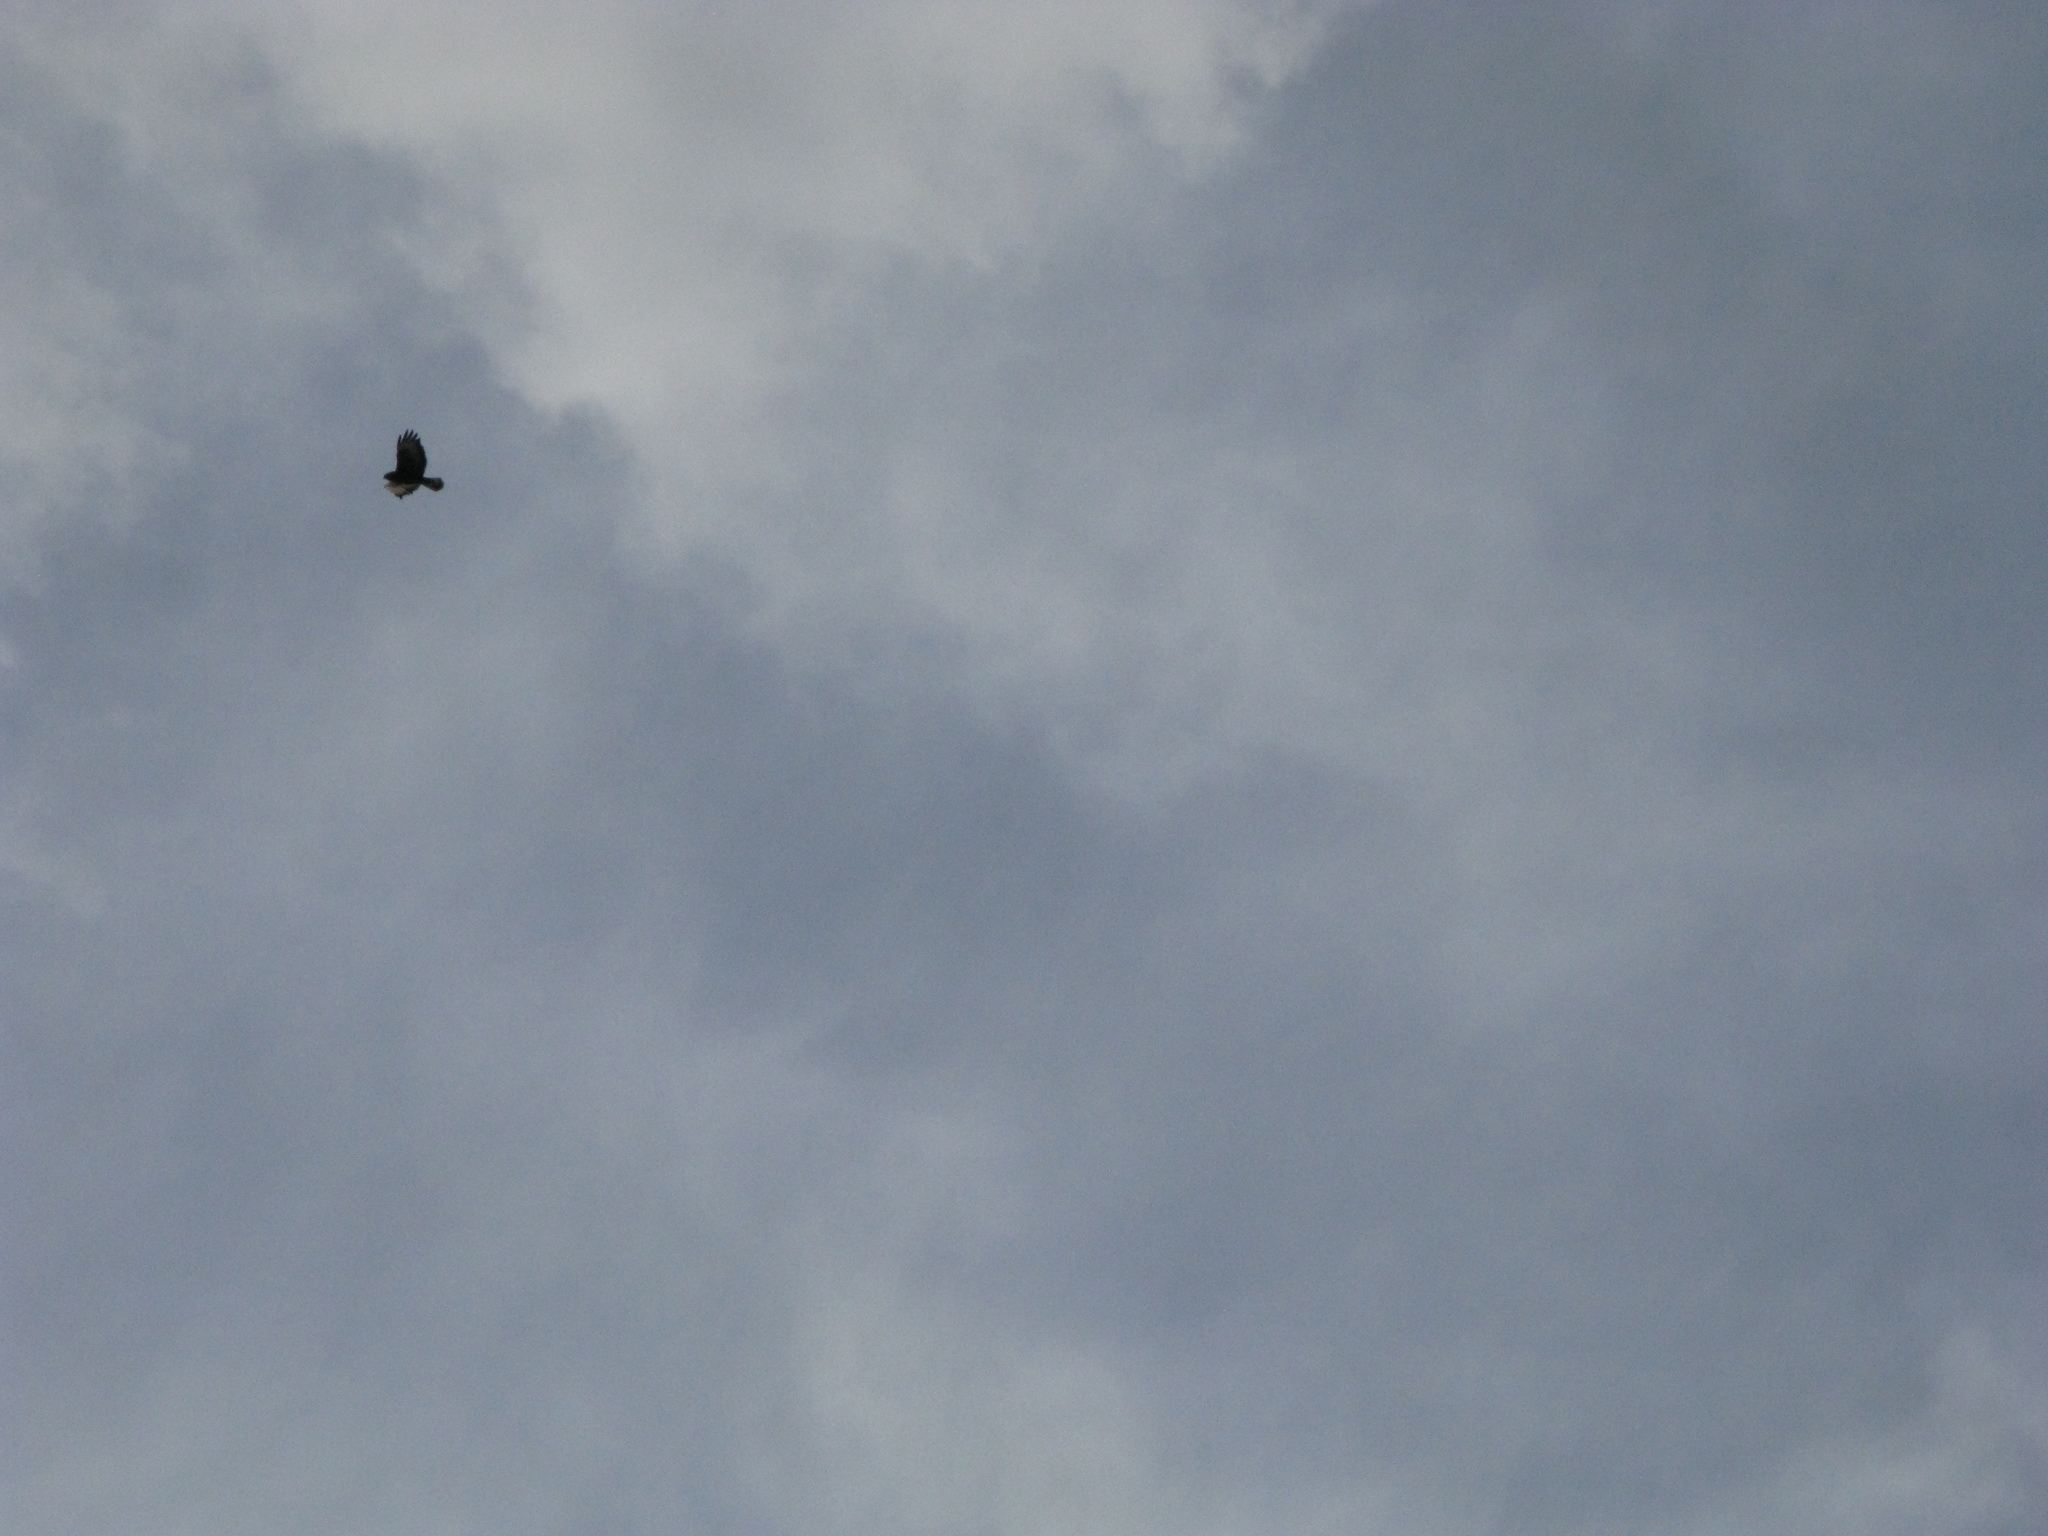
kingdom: Animalia
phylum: Chordata
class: Aves
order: Accipitriformes
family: Accipitridae
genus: Buteo
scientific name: Buteo buteo
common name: Common buzzard
